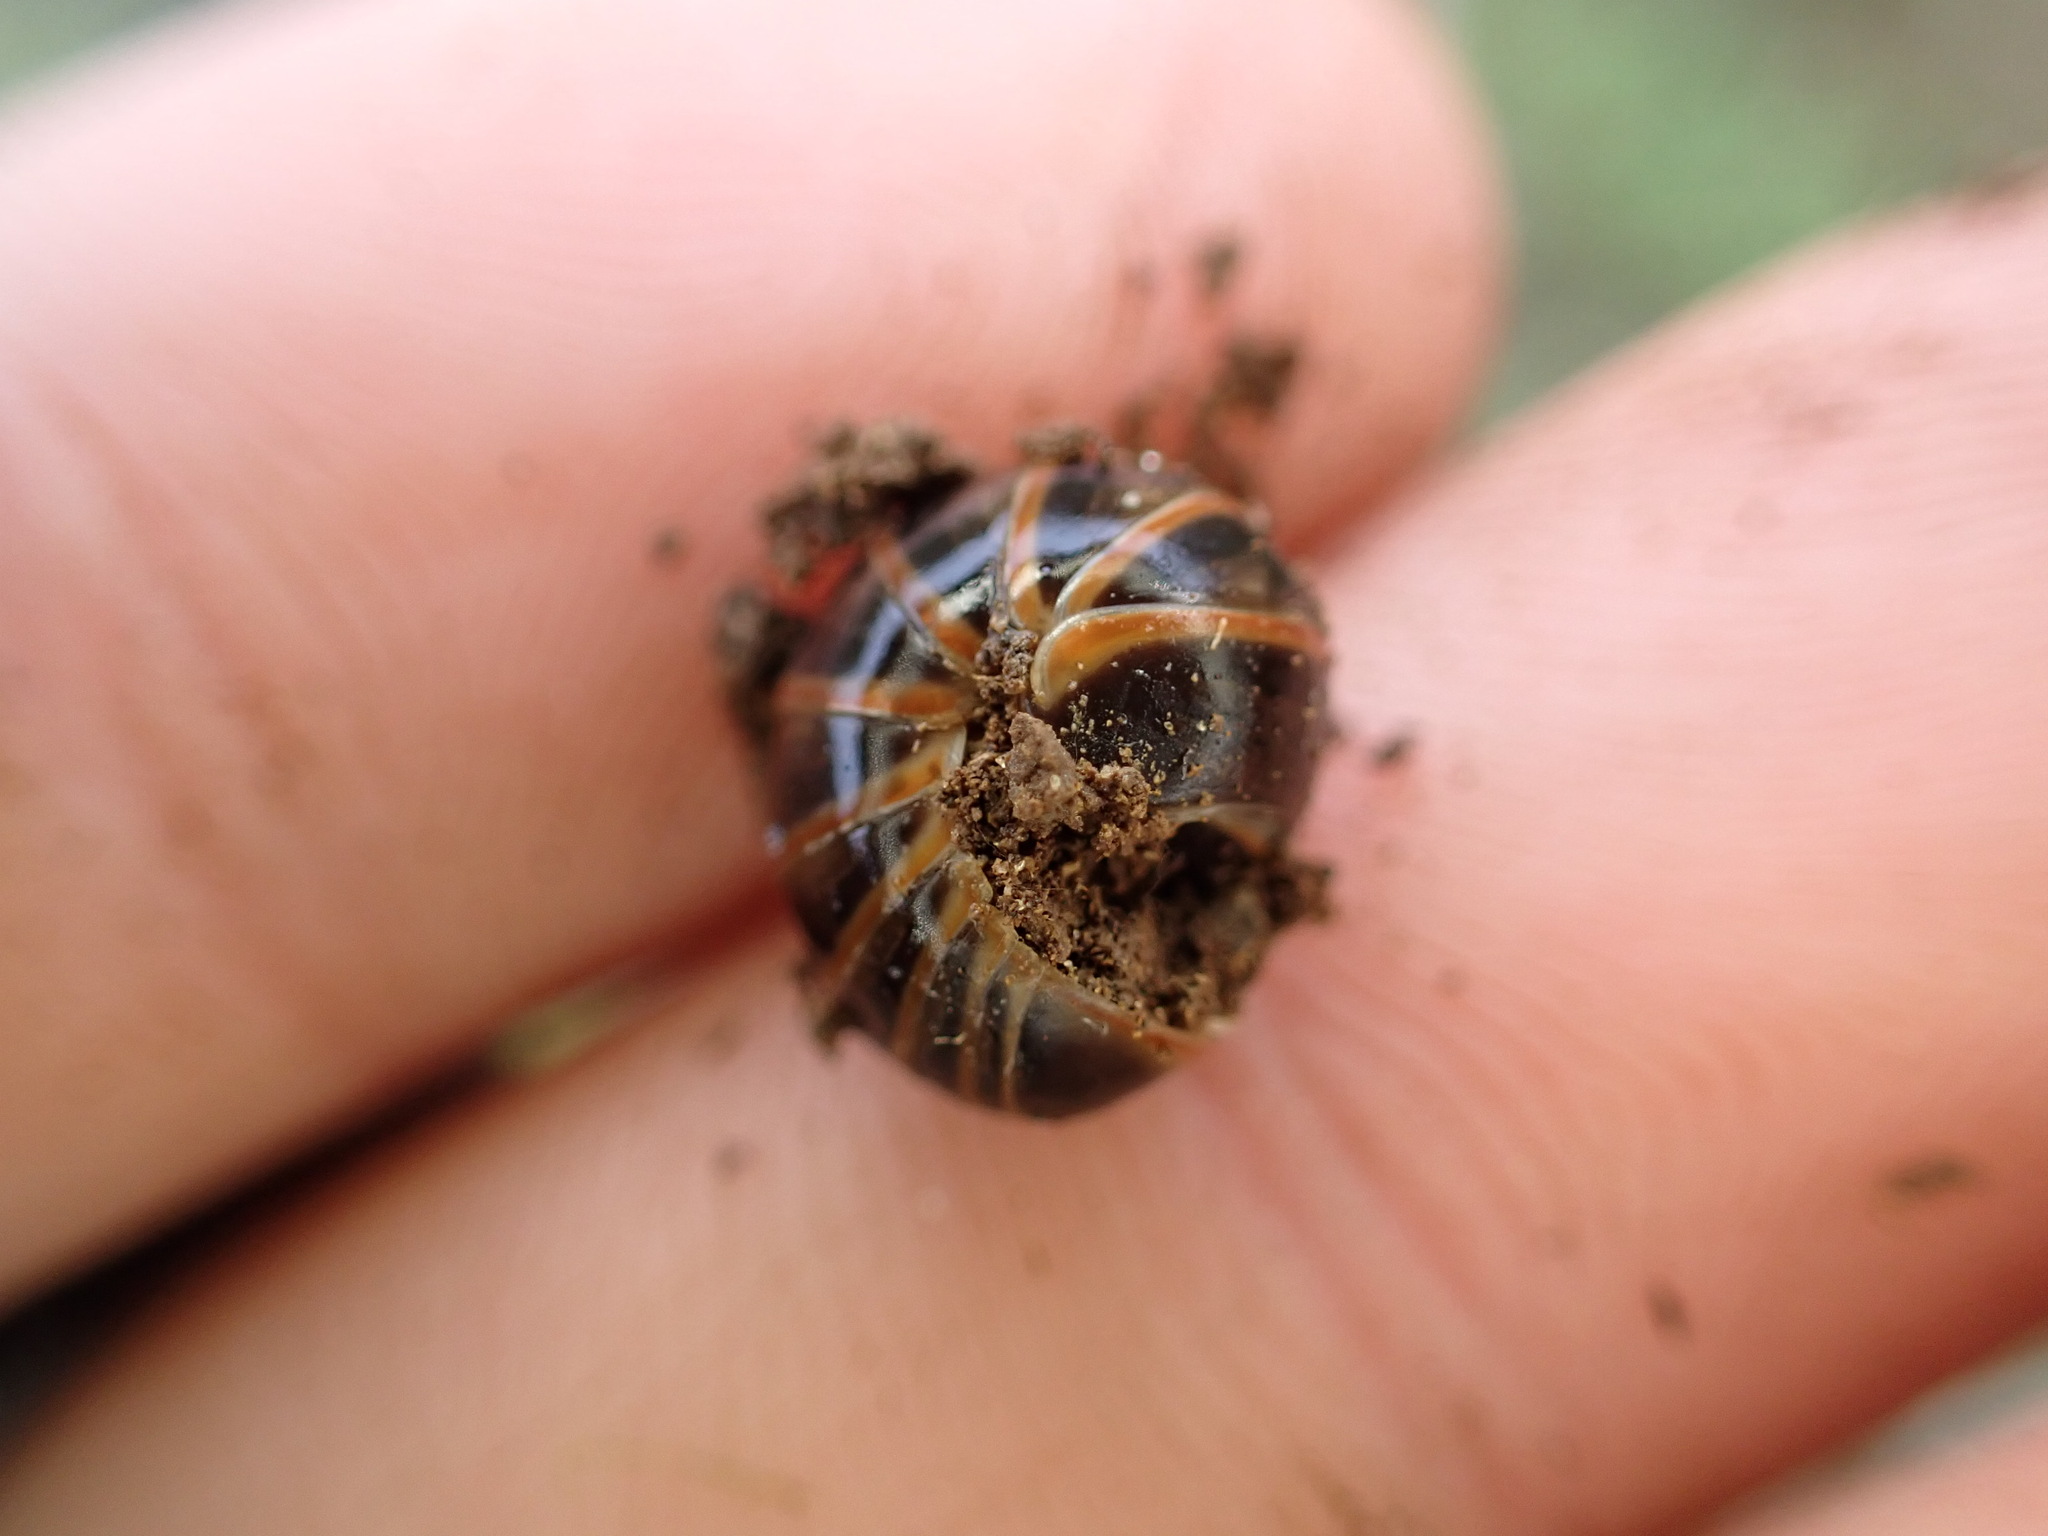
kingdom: Animalia
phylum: Arthropoda
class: Diplopoda
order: Glomerida
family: Glomeridae
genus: Glomeris
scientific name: Glomeris marginata
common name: Bordered pill millipede
